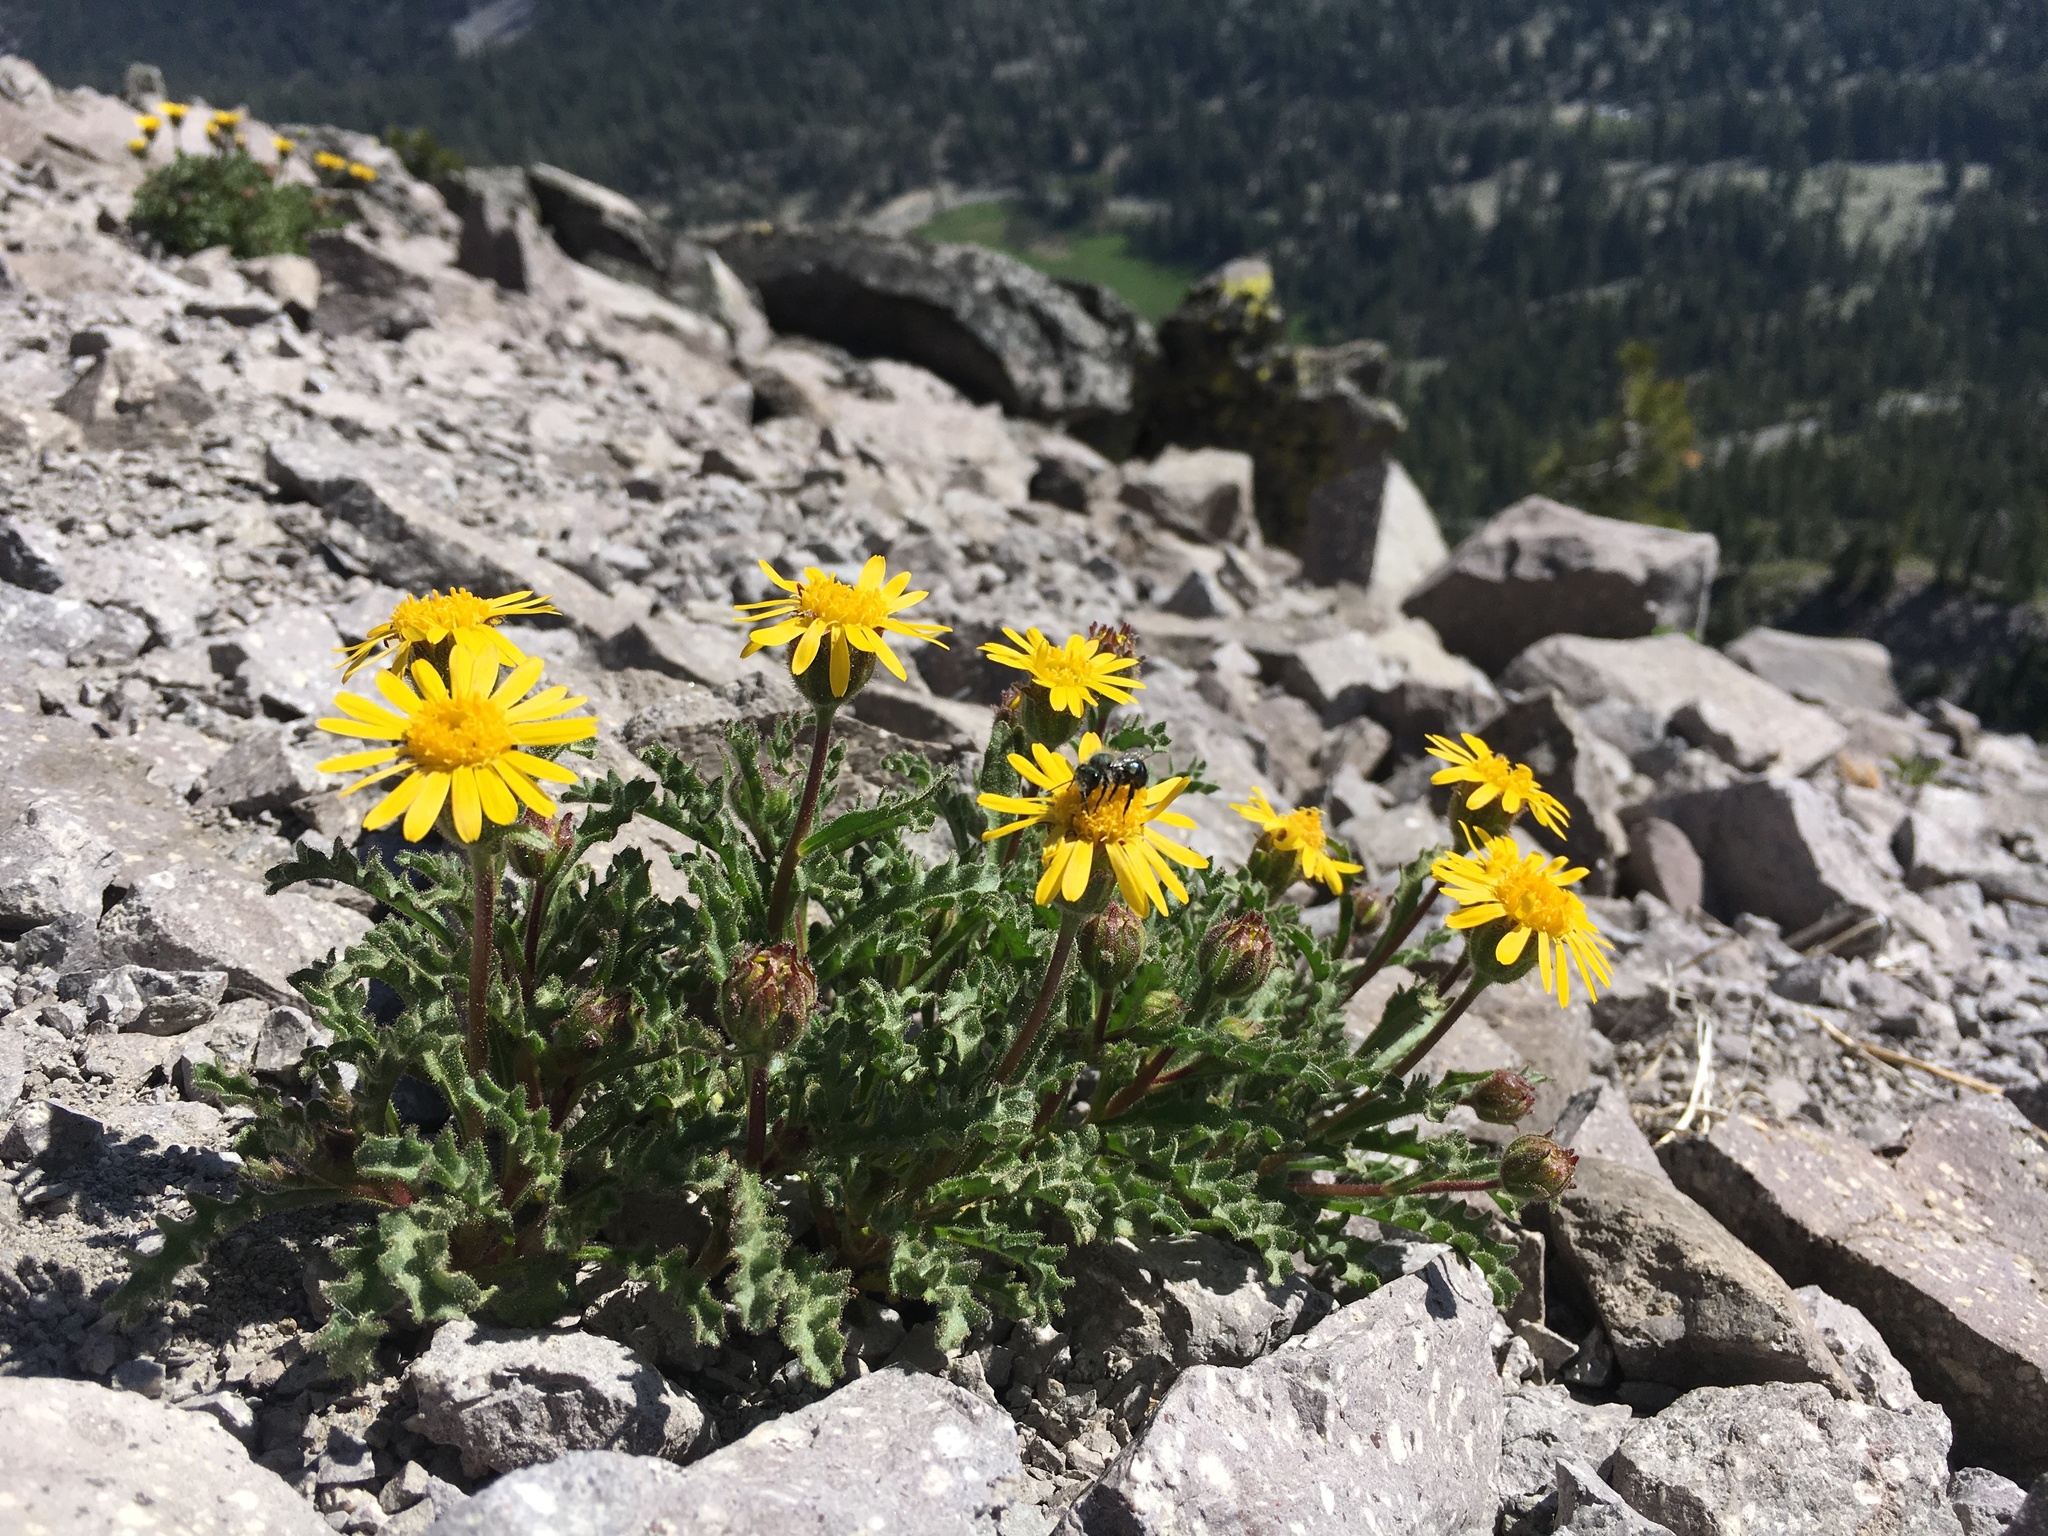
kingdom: Plantae
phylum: Tracheophyta
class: Magnoliopsida
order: Asterales
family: Asteraceae
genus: Hulsea
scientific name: Hulsea nana
